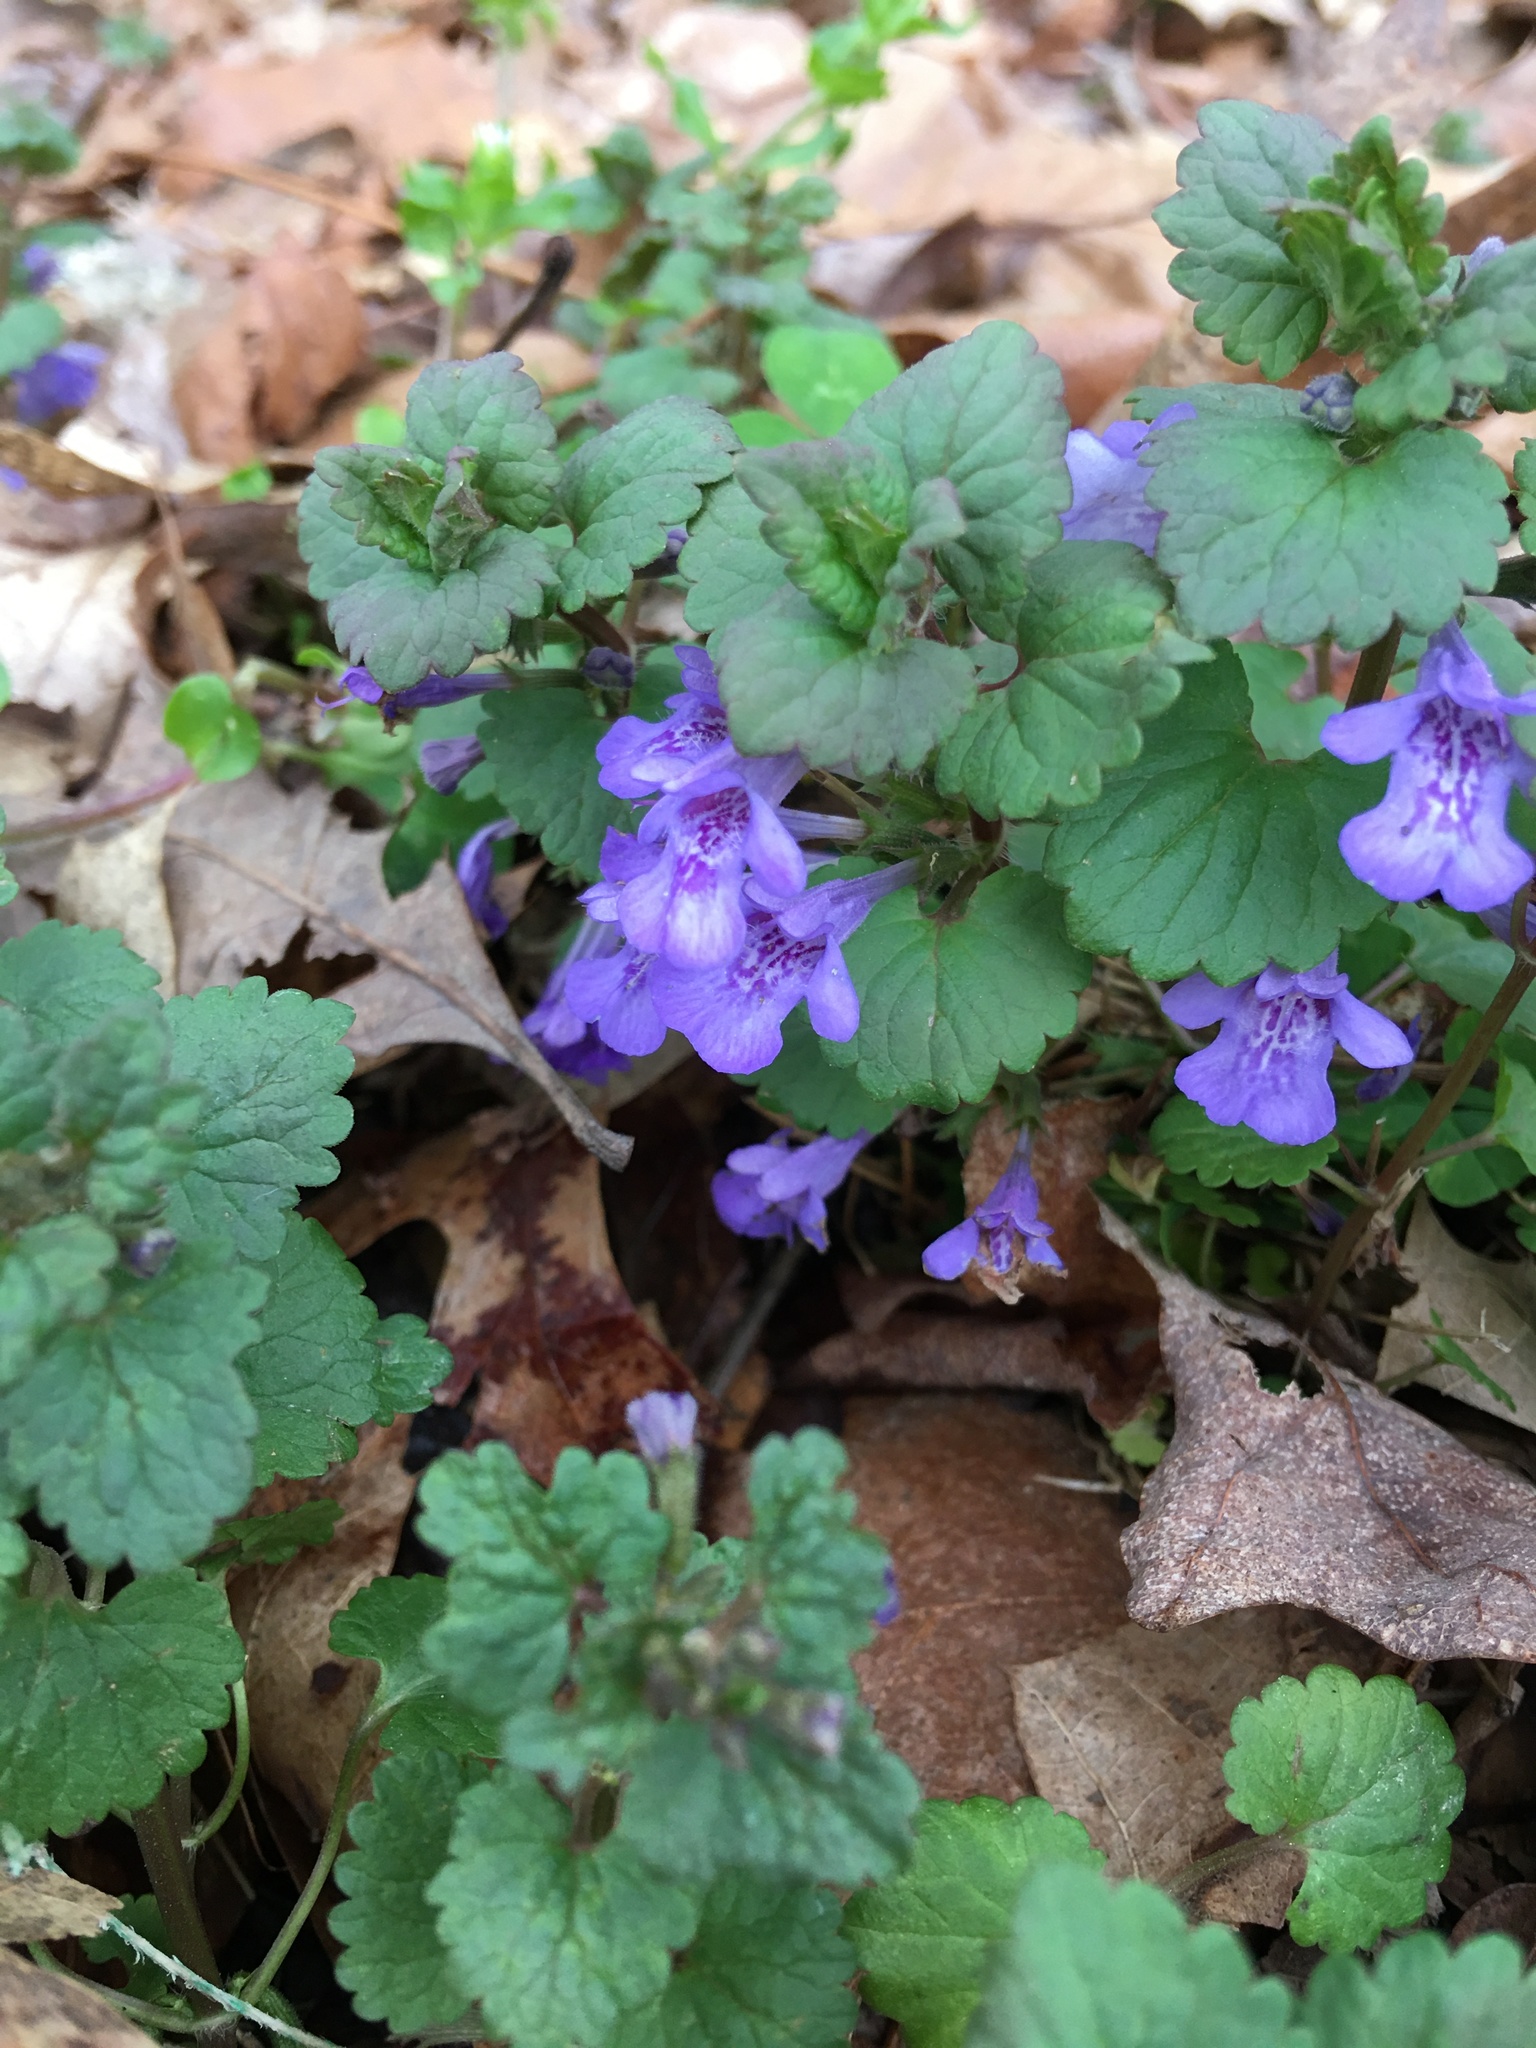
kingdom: Plantae
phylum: Tracheophyta
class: Magnoliopsida
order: Lamiales
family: Lamiaceae
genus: Glechoma
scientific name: Glechoma hederacea
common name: Ground ivy
